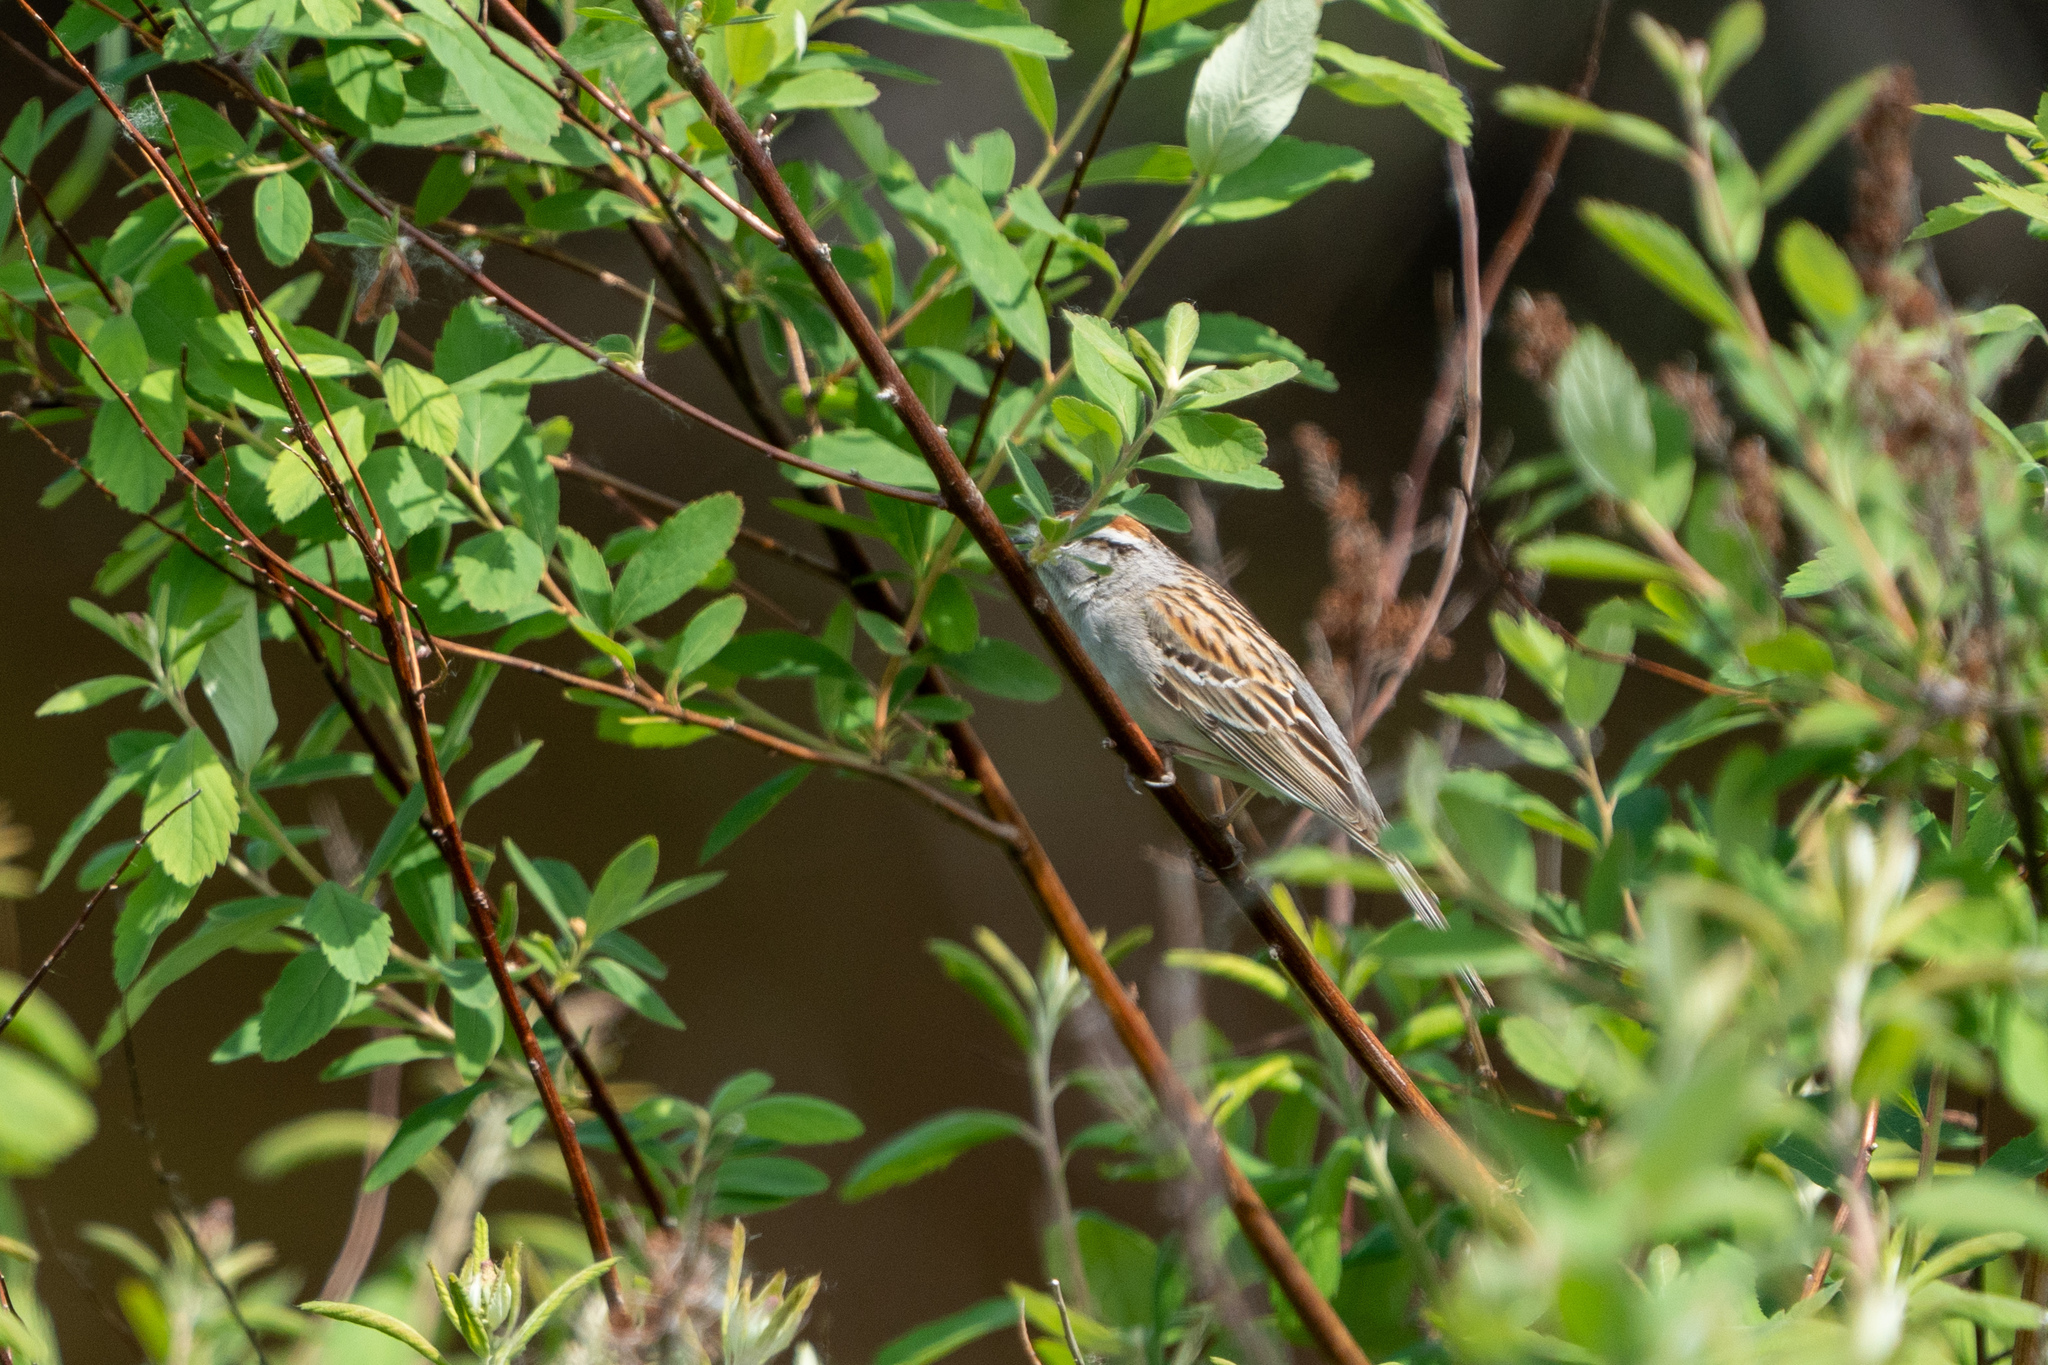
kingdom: Animalia
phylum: Chordata
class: Aves
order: Passeriformes
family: Passerellidae
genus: Spizella
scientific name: Spizella passerina
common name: Chipping sparrow
